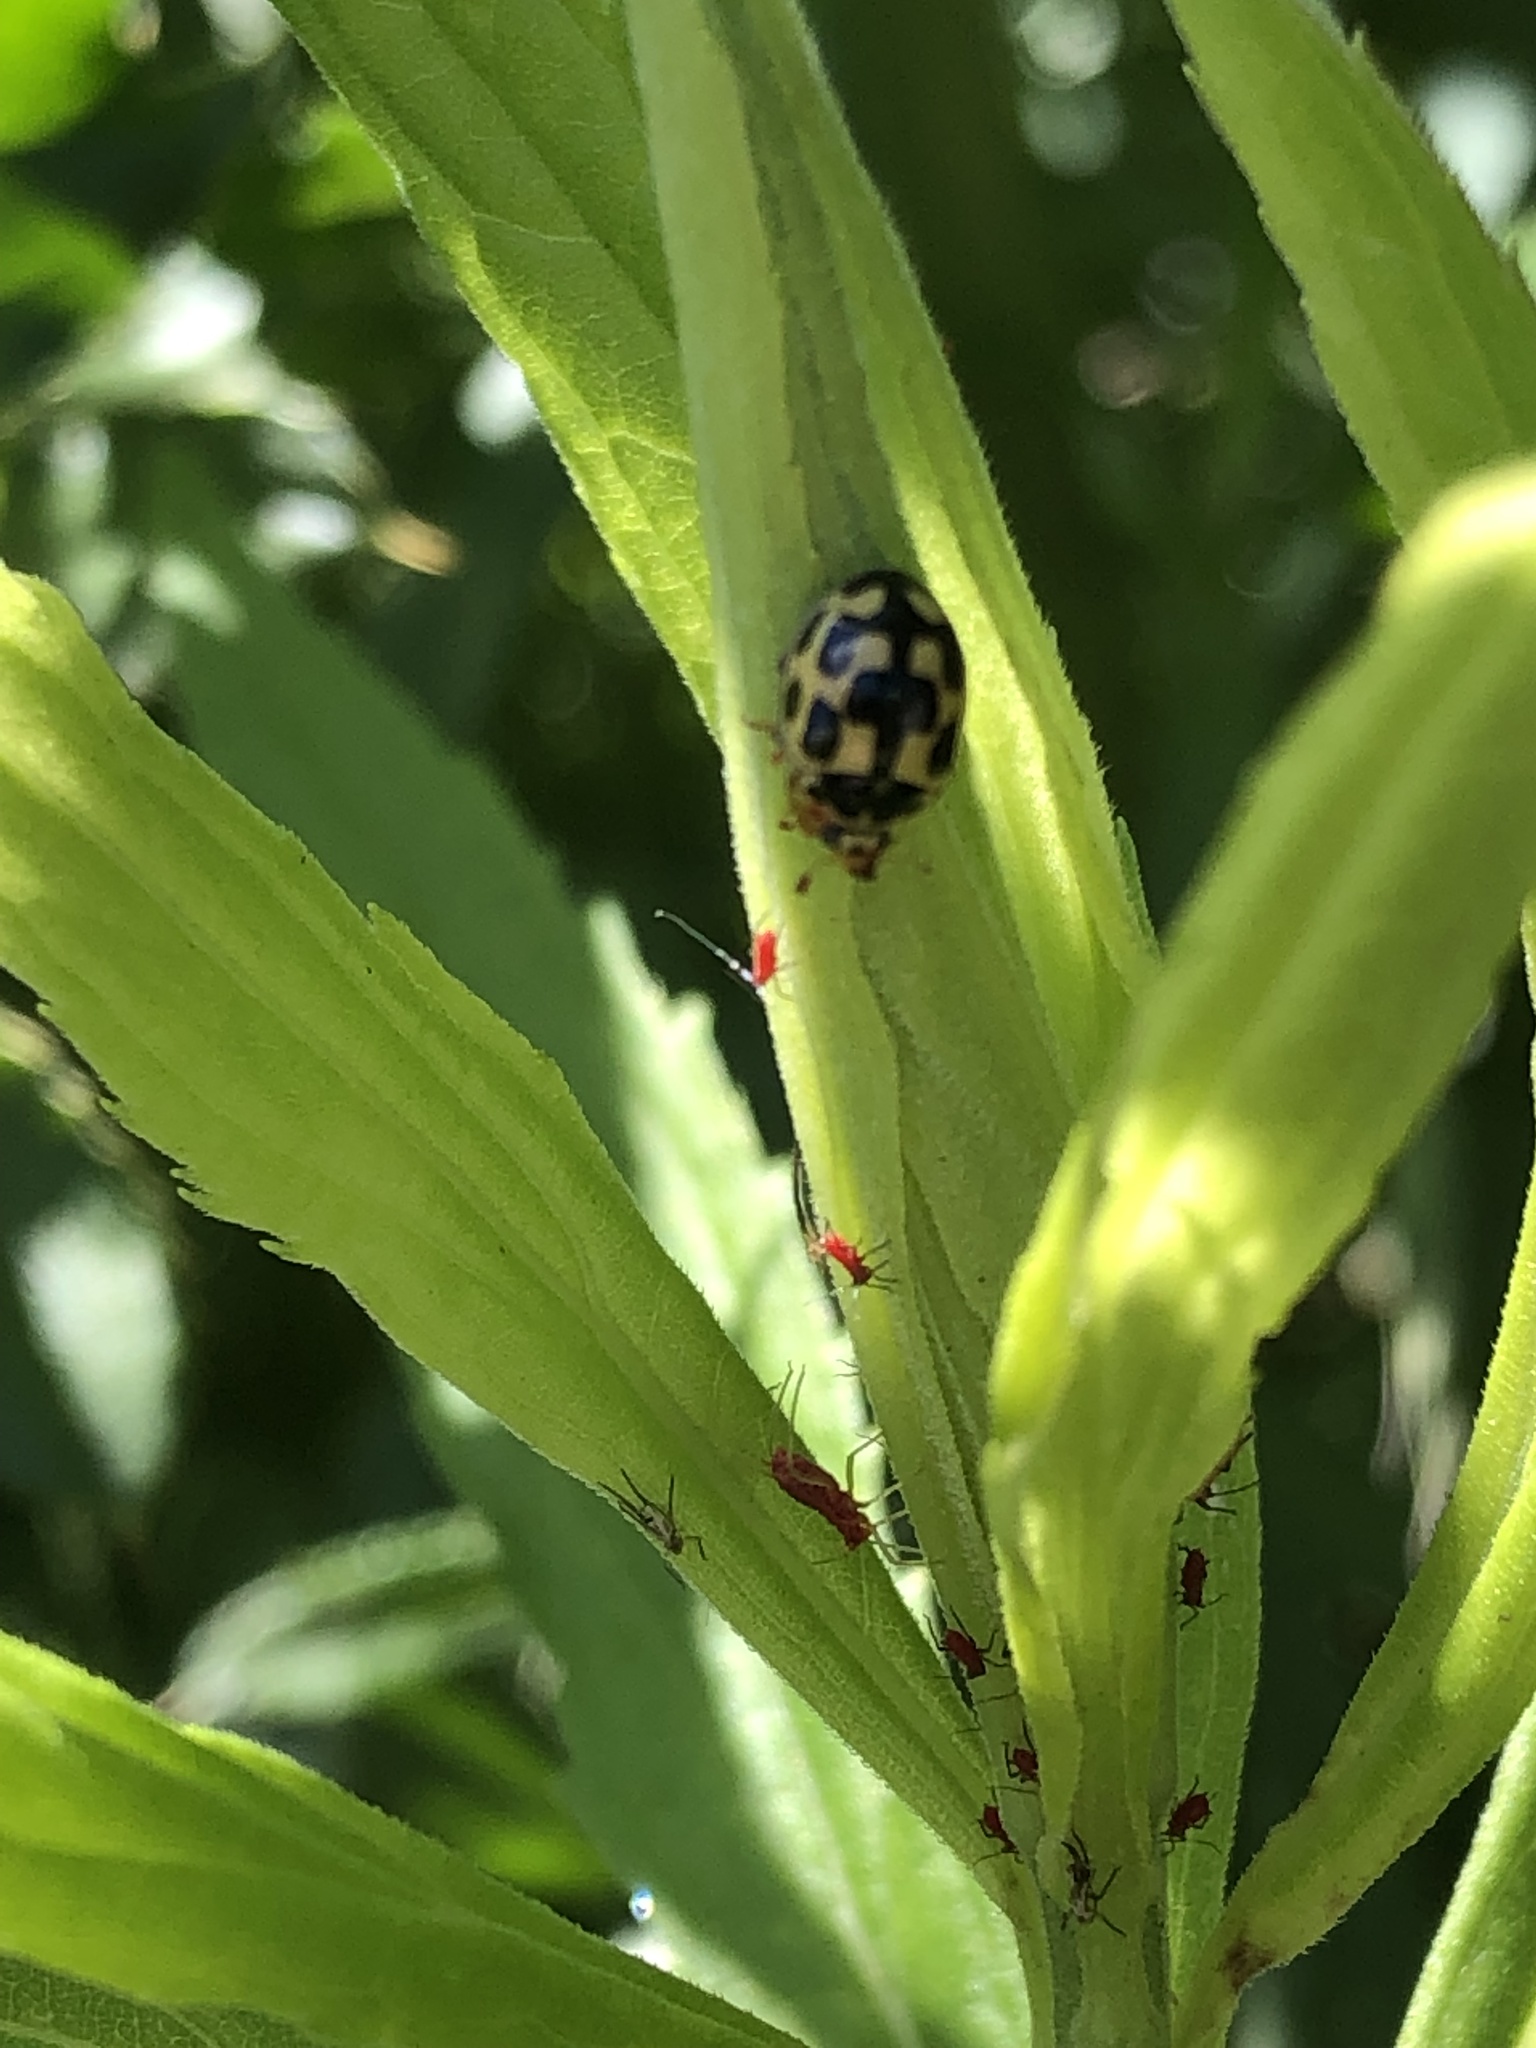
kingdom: Animalia
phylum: Arthropoda
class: Insecta
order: Coleoptera
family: Coccinellidae
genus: Propylaea
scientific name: Propylaea quatuordecimpunctata
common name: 14-spotted ladybird beetle
